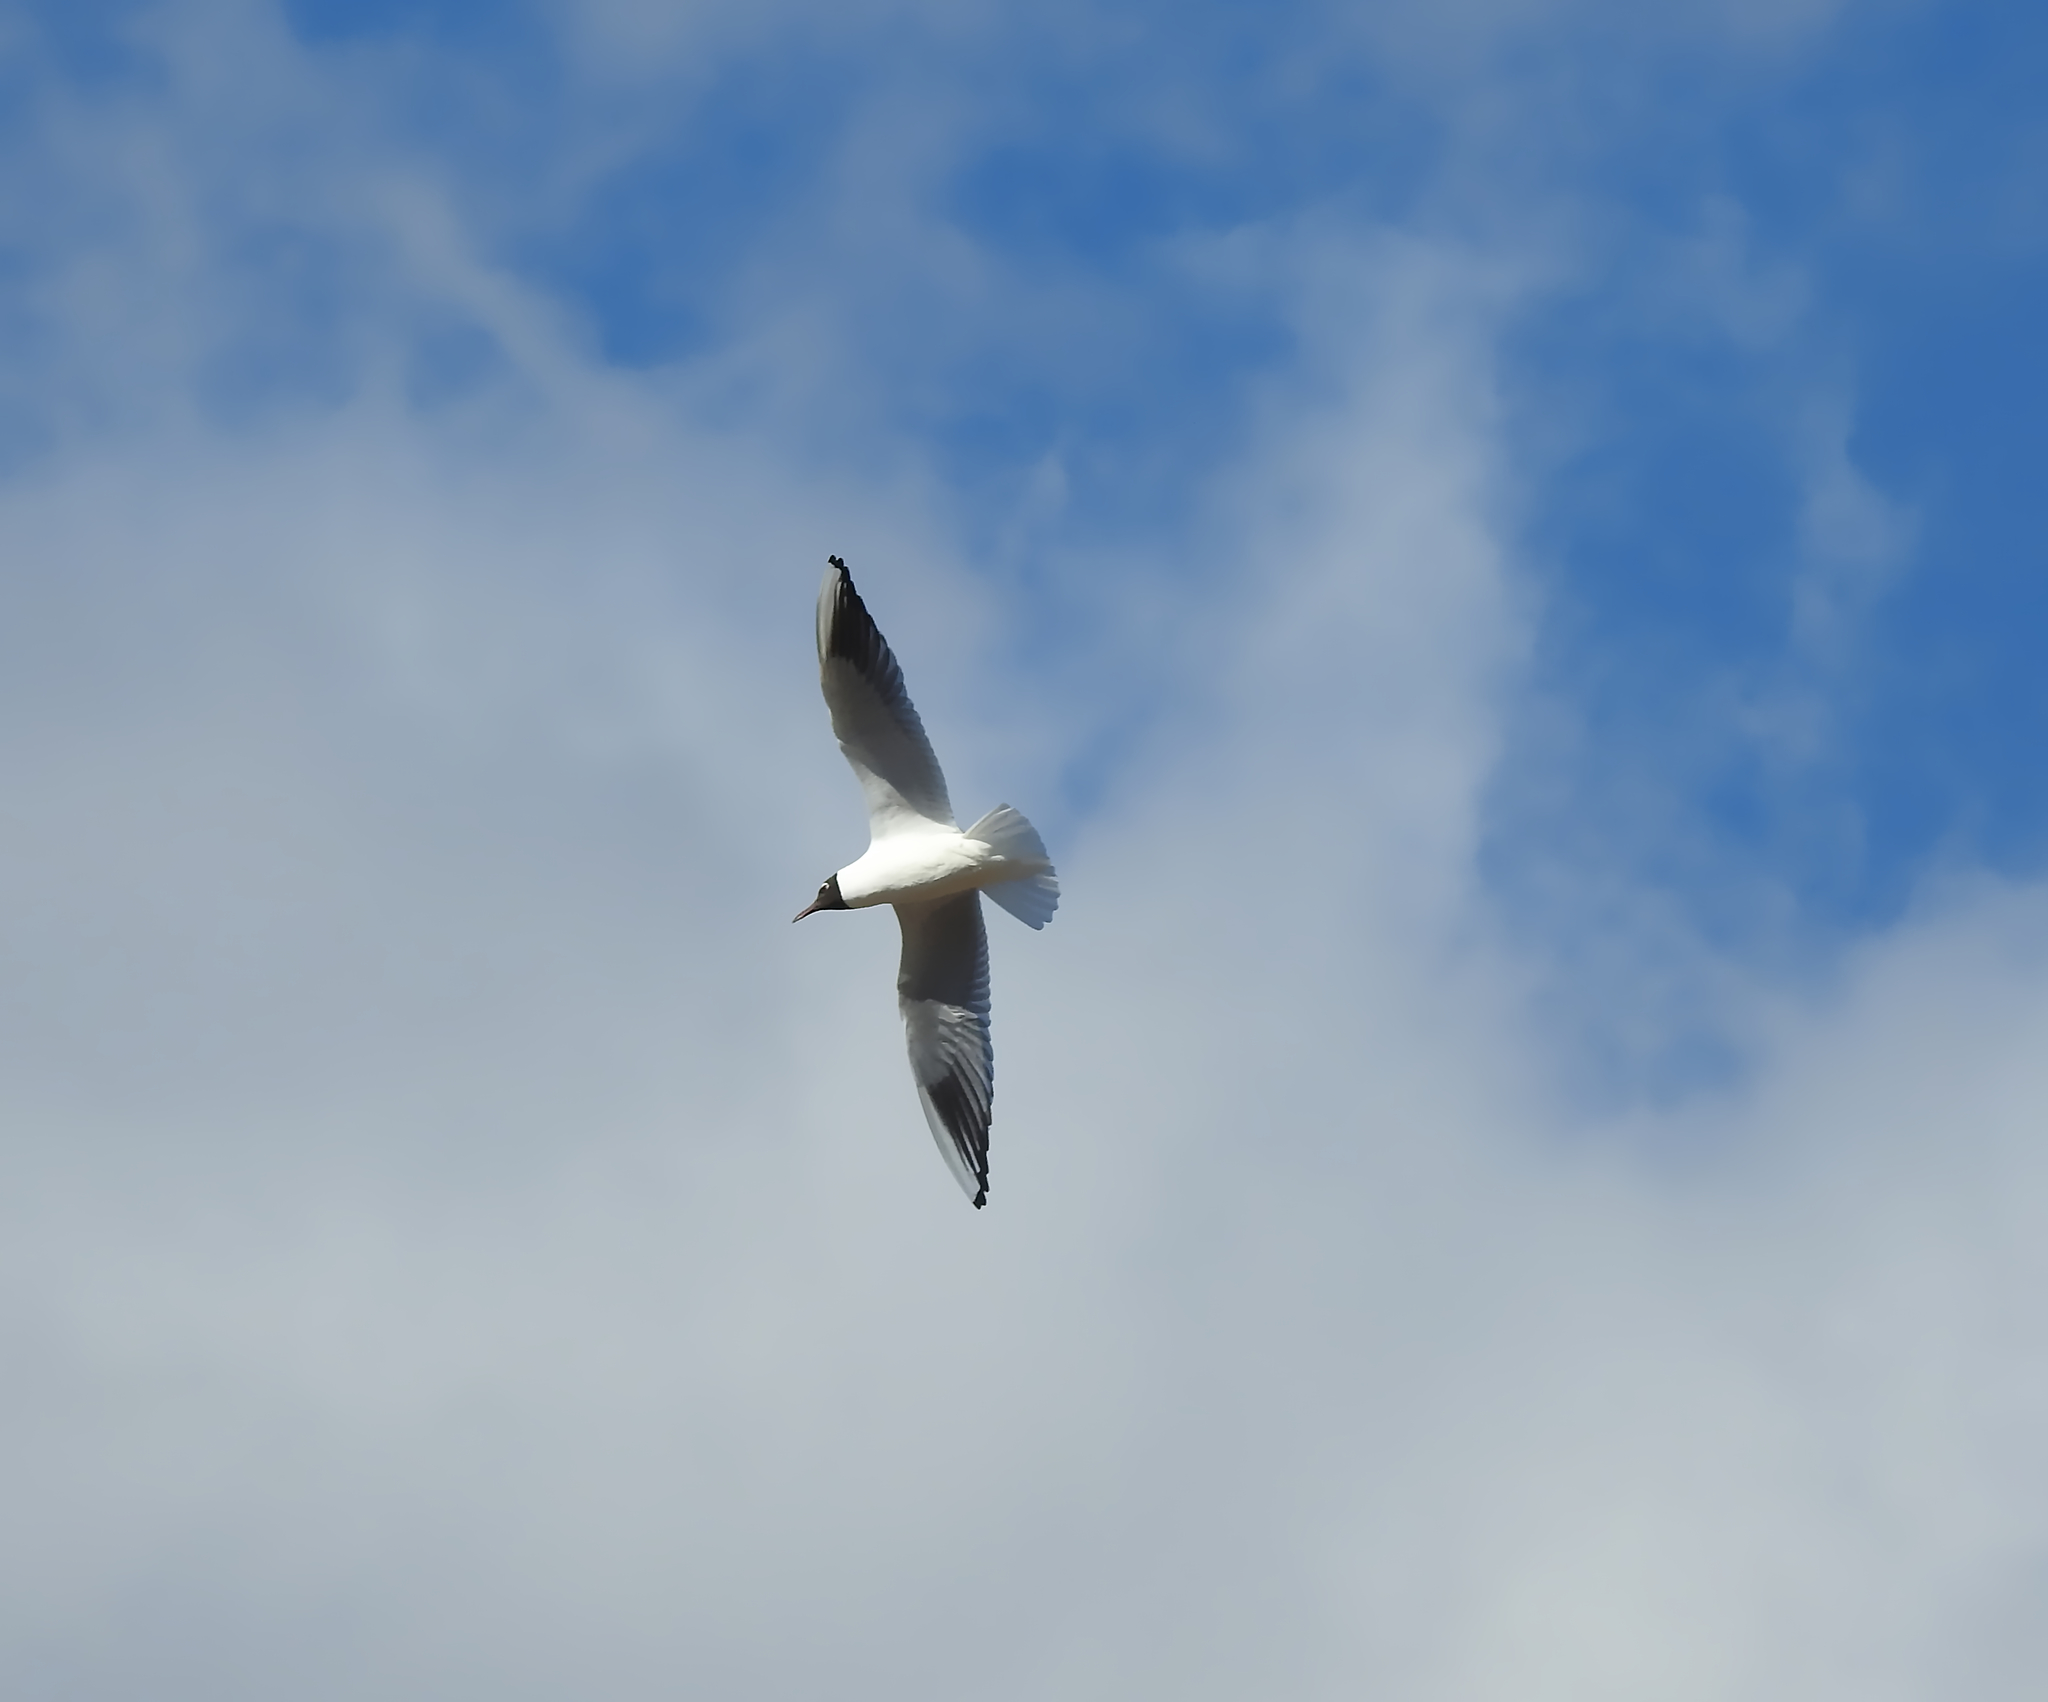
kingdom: Animalia
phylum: Chordata
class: Aves
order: Charadriiformes
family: Laridae
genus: Chroicocephalus
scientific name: Chroicocephalus ridibundus
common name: Black-headed gull
